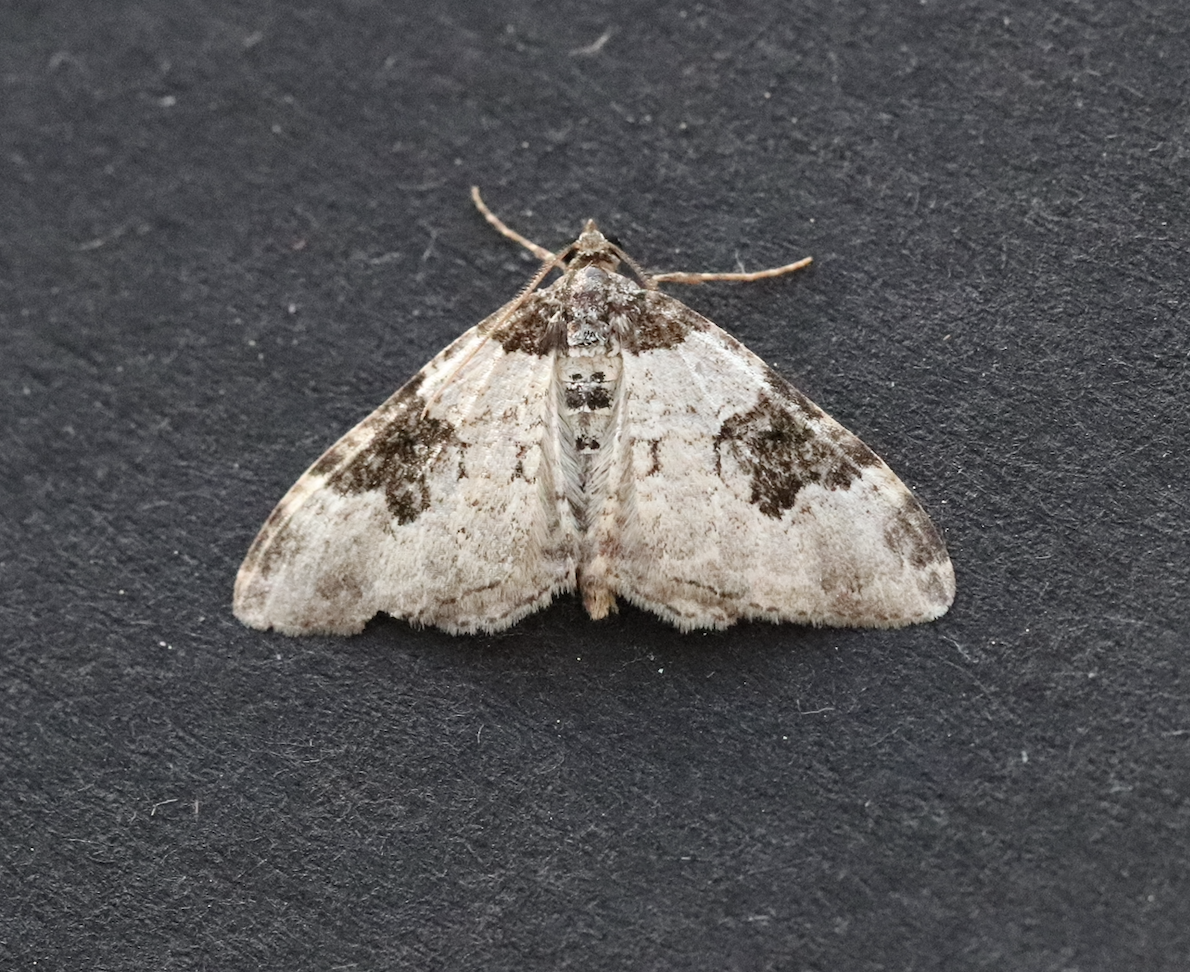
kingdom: Animalia
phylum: Arthropoda
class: Insecta
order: Lepidoptera
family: Geometridae
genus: Xanthorhoe
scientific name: Xanthorhoe fluctuata
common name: Garden carpet
